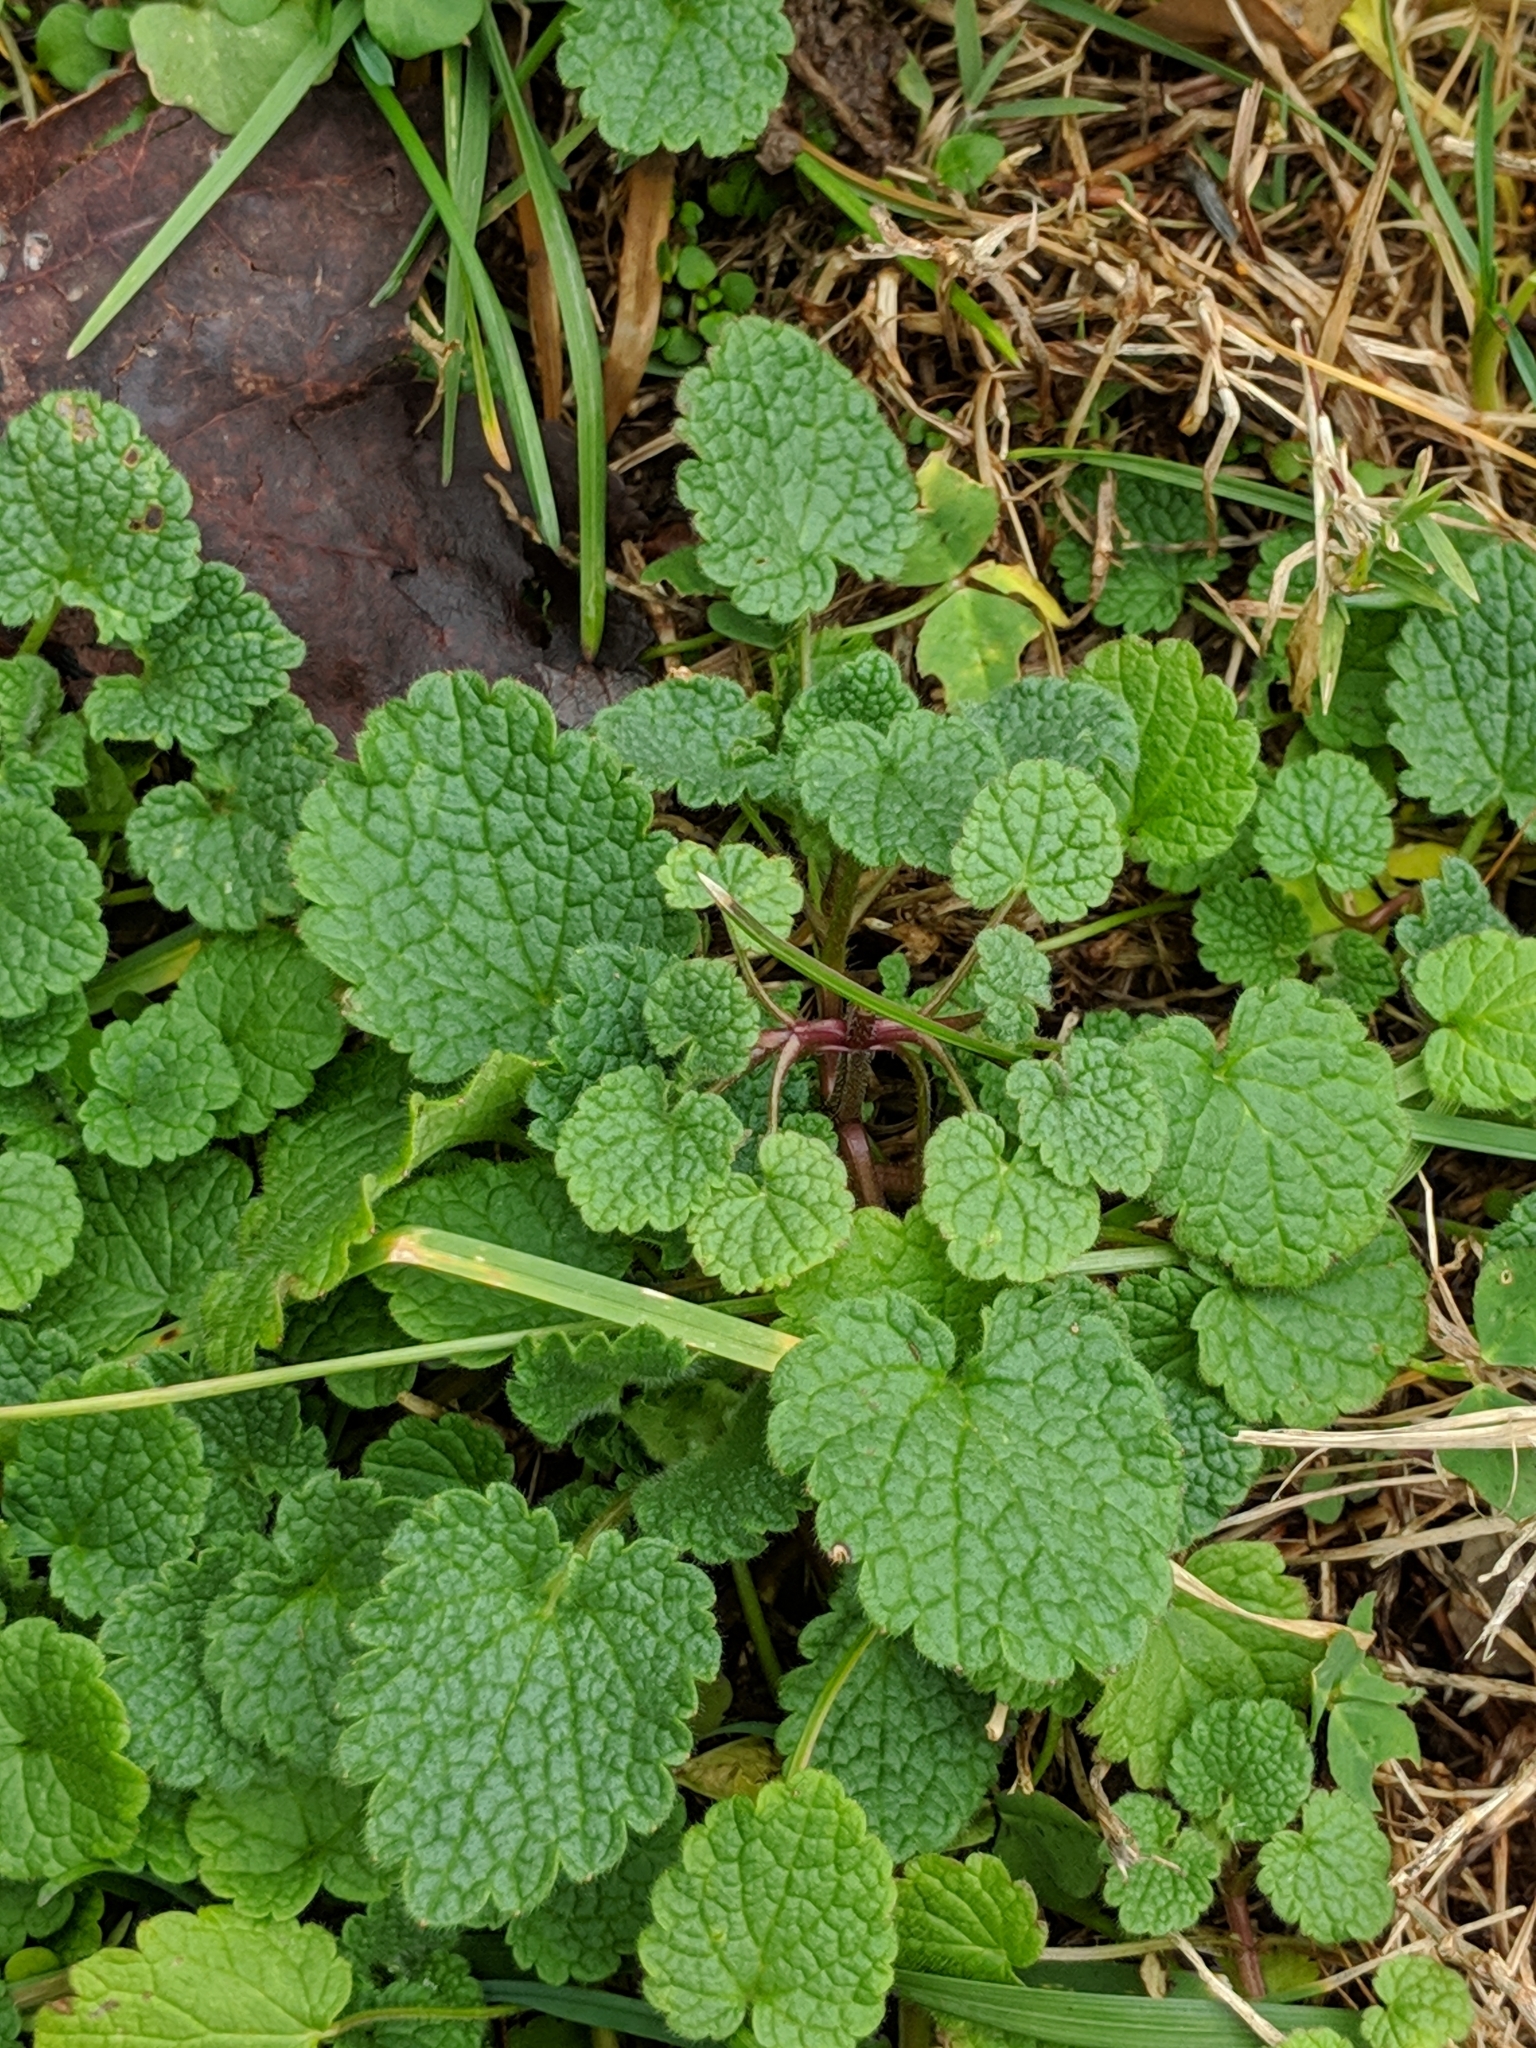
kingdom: Plantae
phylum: Tracheophyta
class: Magnoliopsida
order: Lamiales
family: Lamiaceae
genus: Lamium
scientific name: Lamium purpureum
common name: Red dead-nettle
